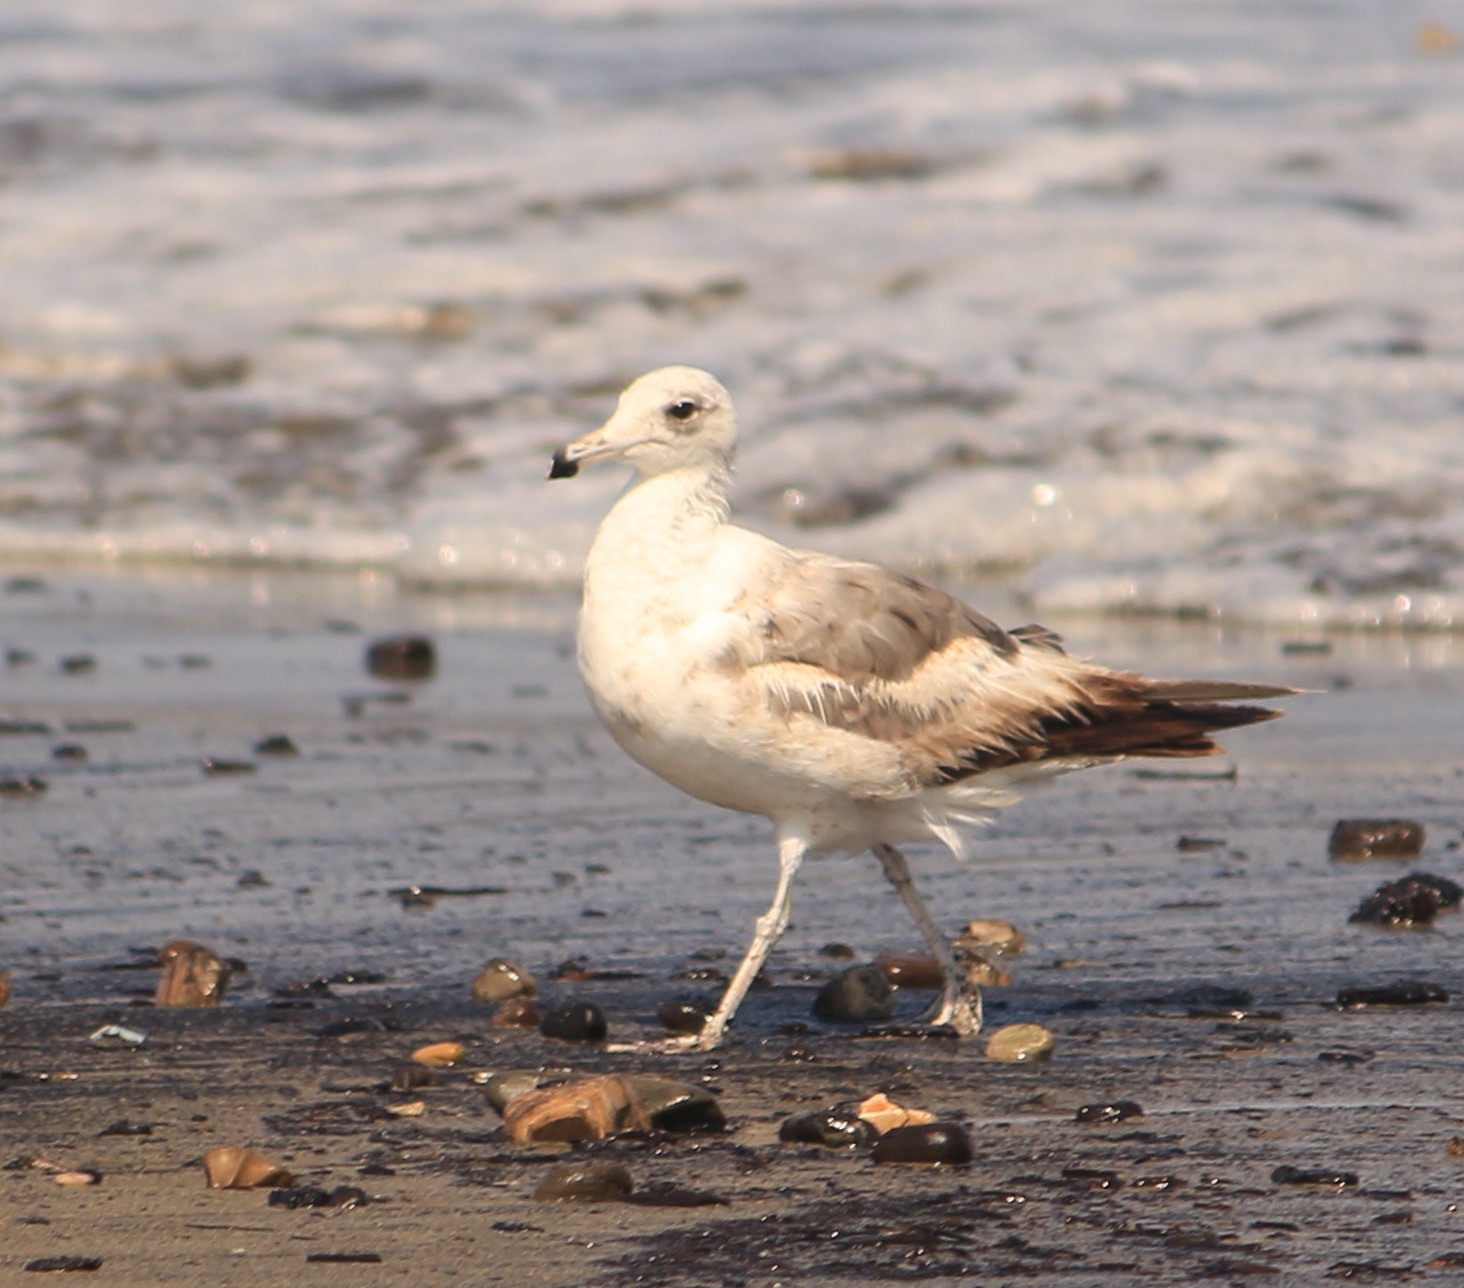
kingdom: Animalia
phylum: Chordata
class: Aves
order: Charadriiformes
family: Laridae
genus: Larus
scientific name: Larus californicus
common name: California gull
